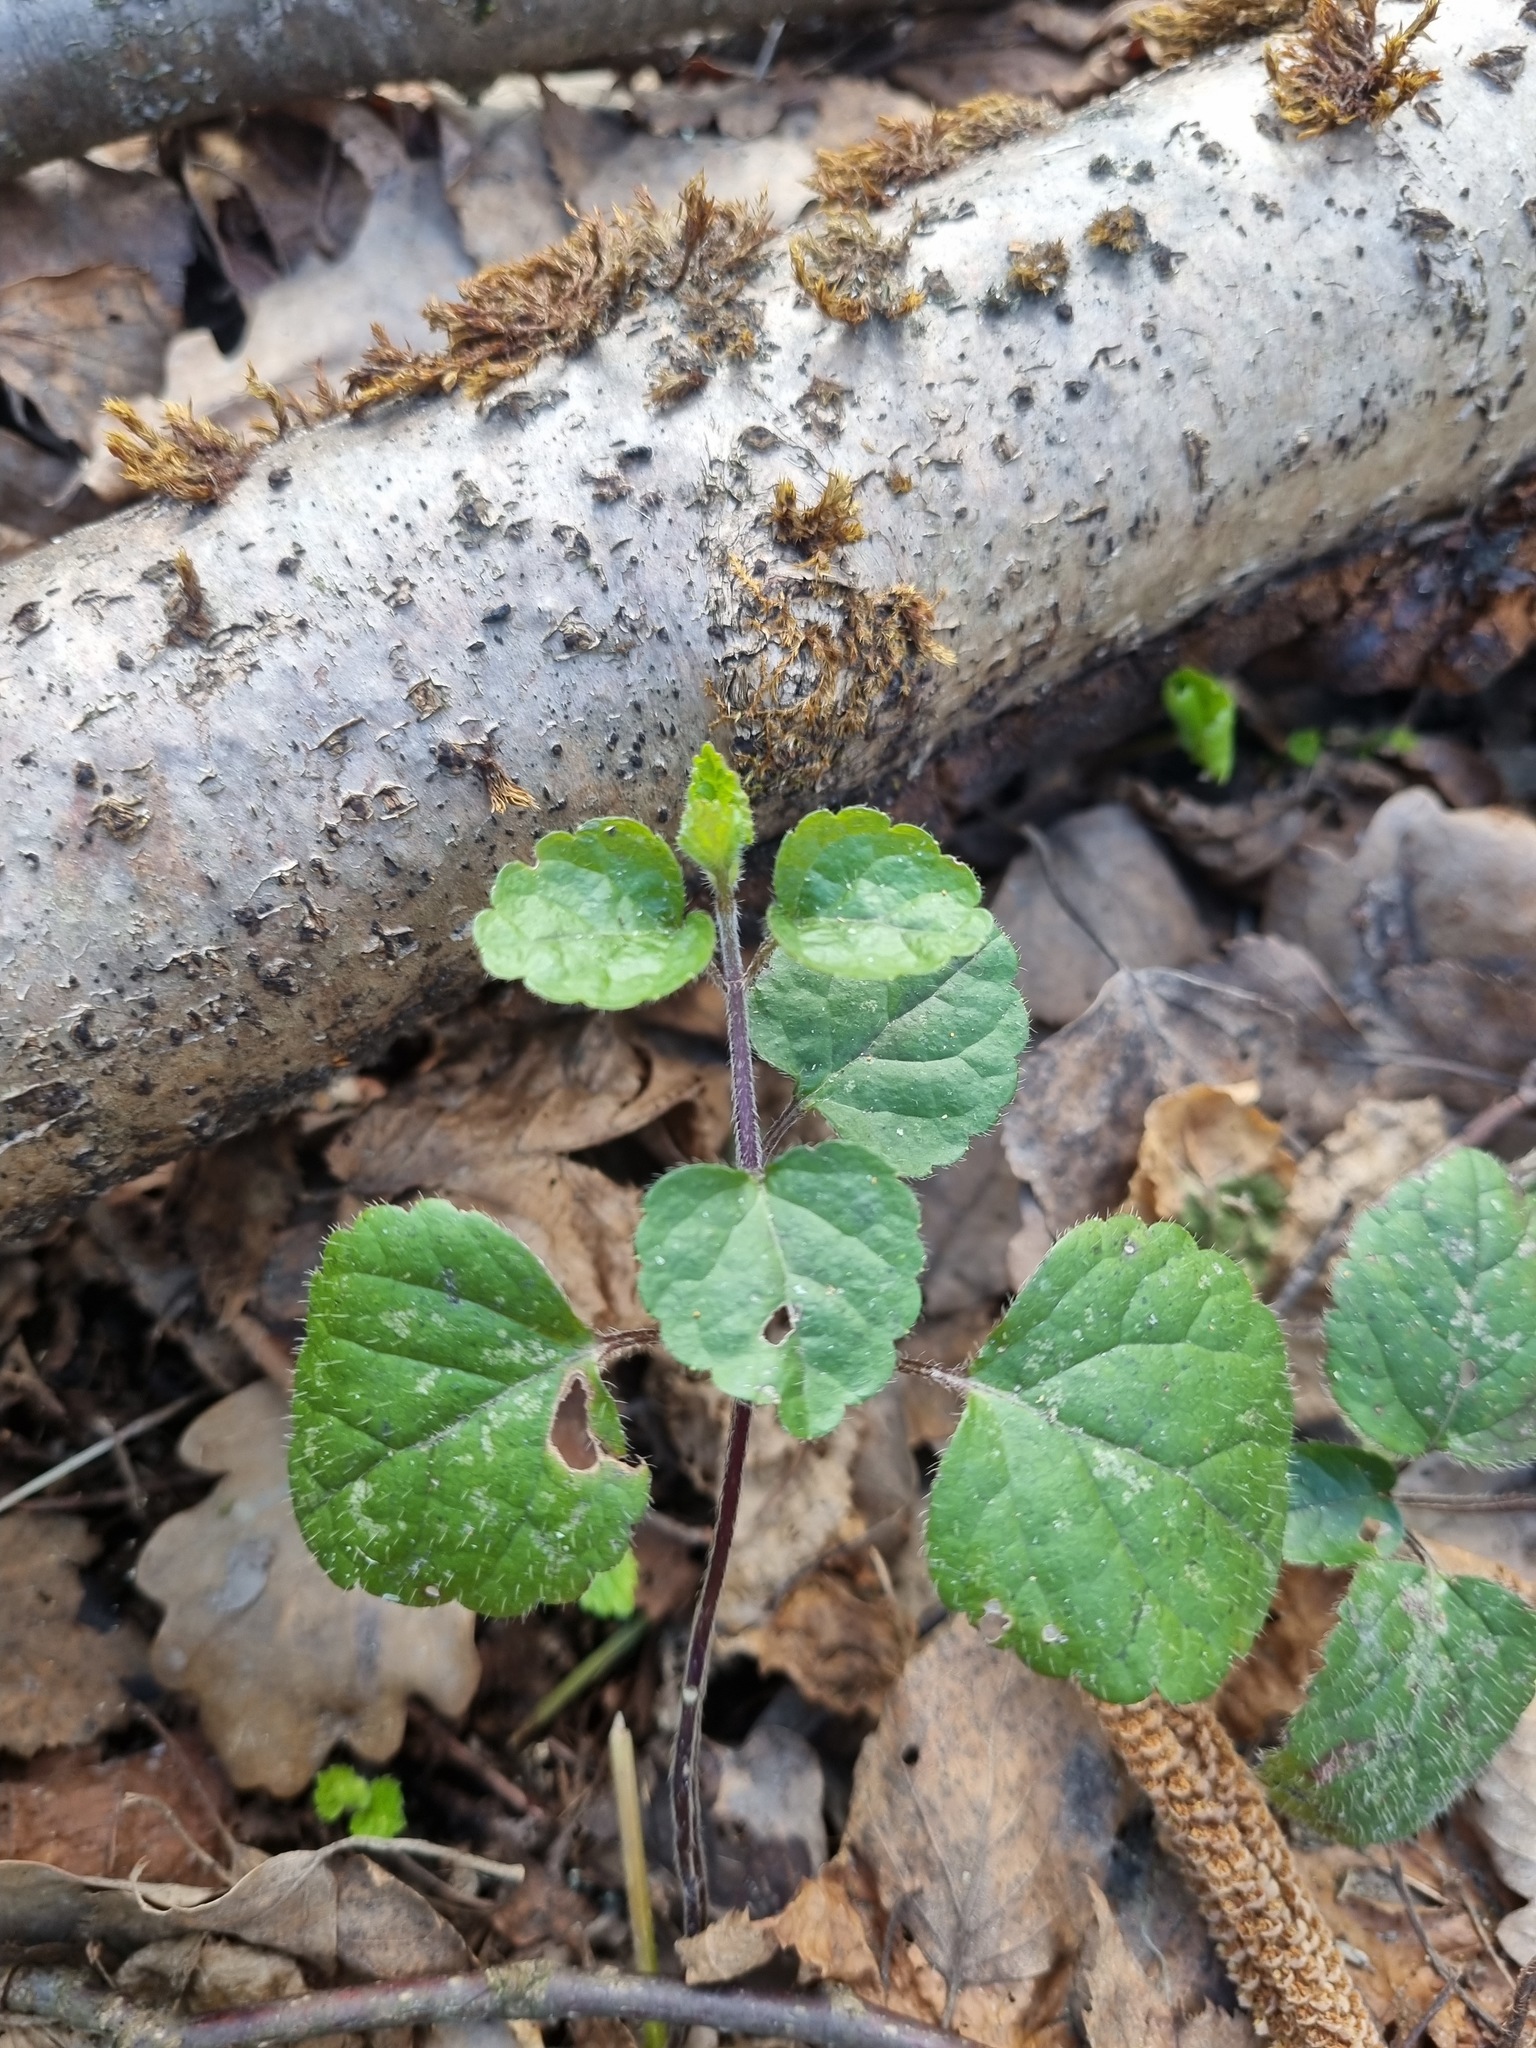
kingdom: Plantae
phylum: Tracheophyta
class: Magnoliopsida
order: Lamiales
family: Lamiaceae
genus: Lamium
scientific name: Lamium galeobdolon
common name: Yellow archangel
